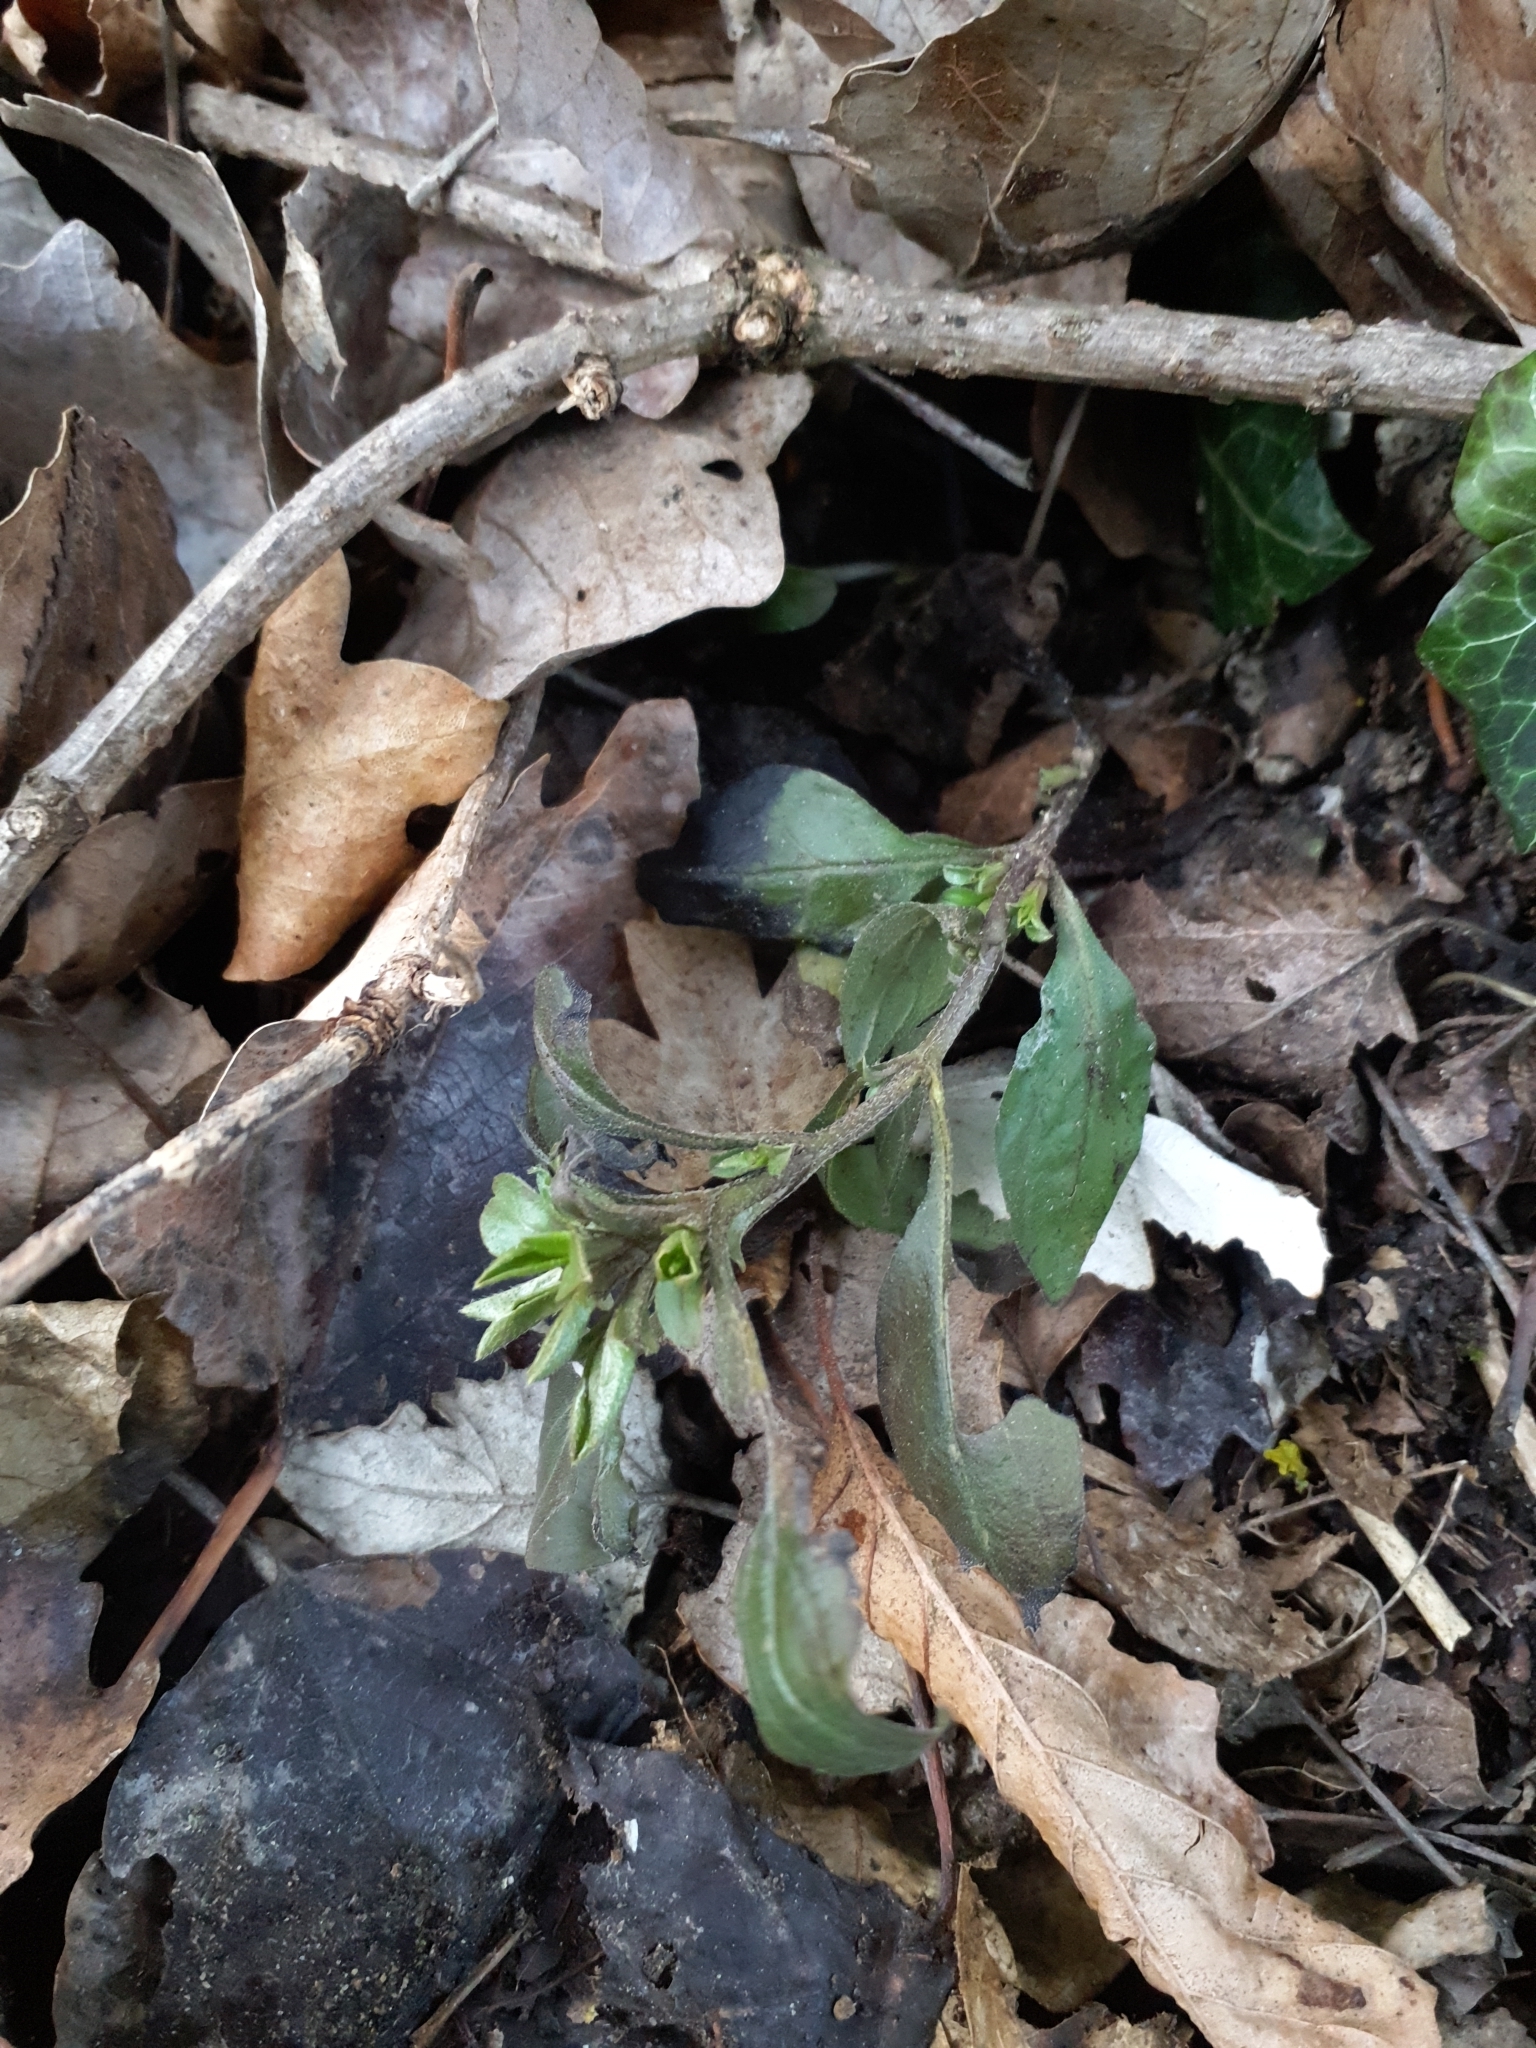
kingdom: Plantae
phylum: Tracheophyta
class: Magnoliopsida
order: Boraginales
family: Boraginaceae
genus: Memoremea
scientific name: Memoremea scorpioides
